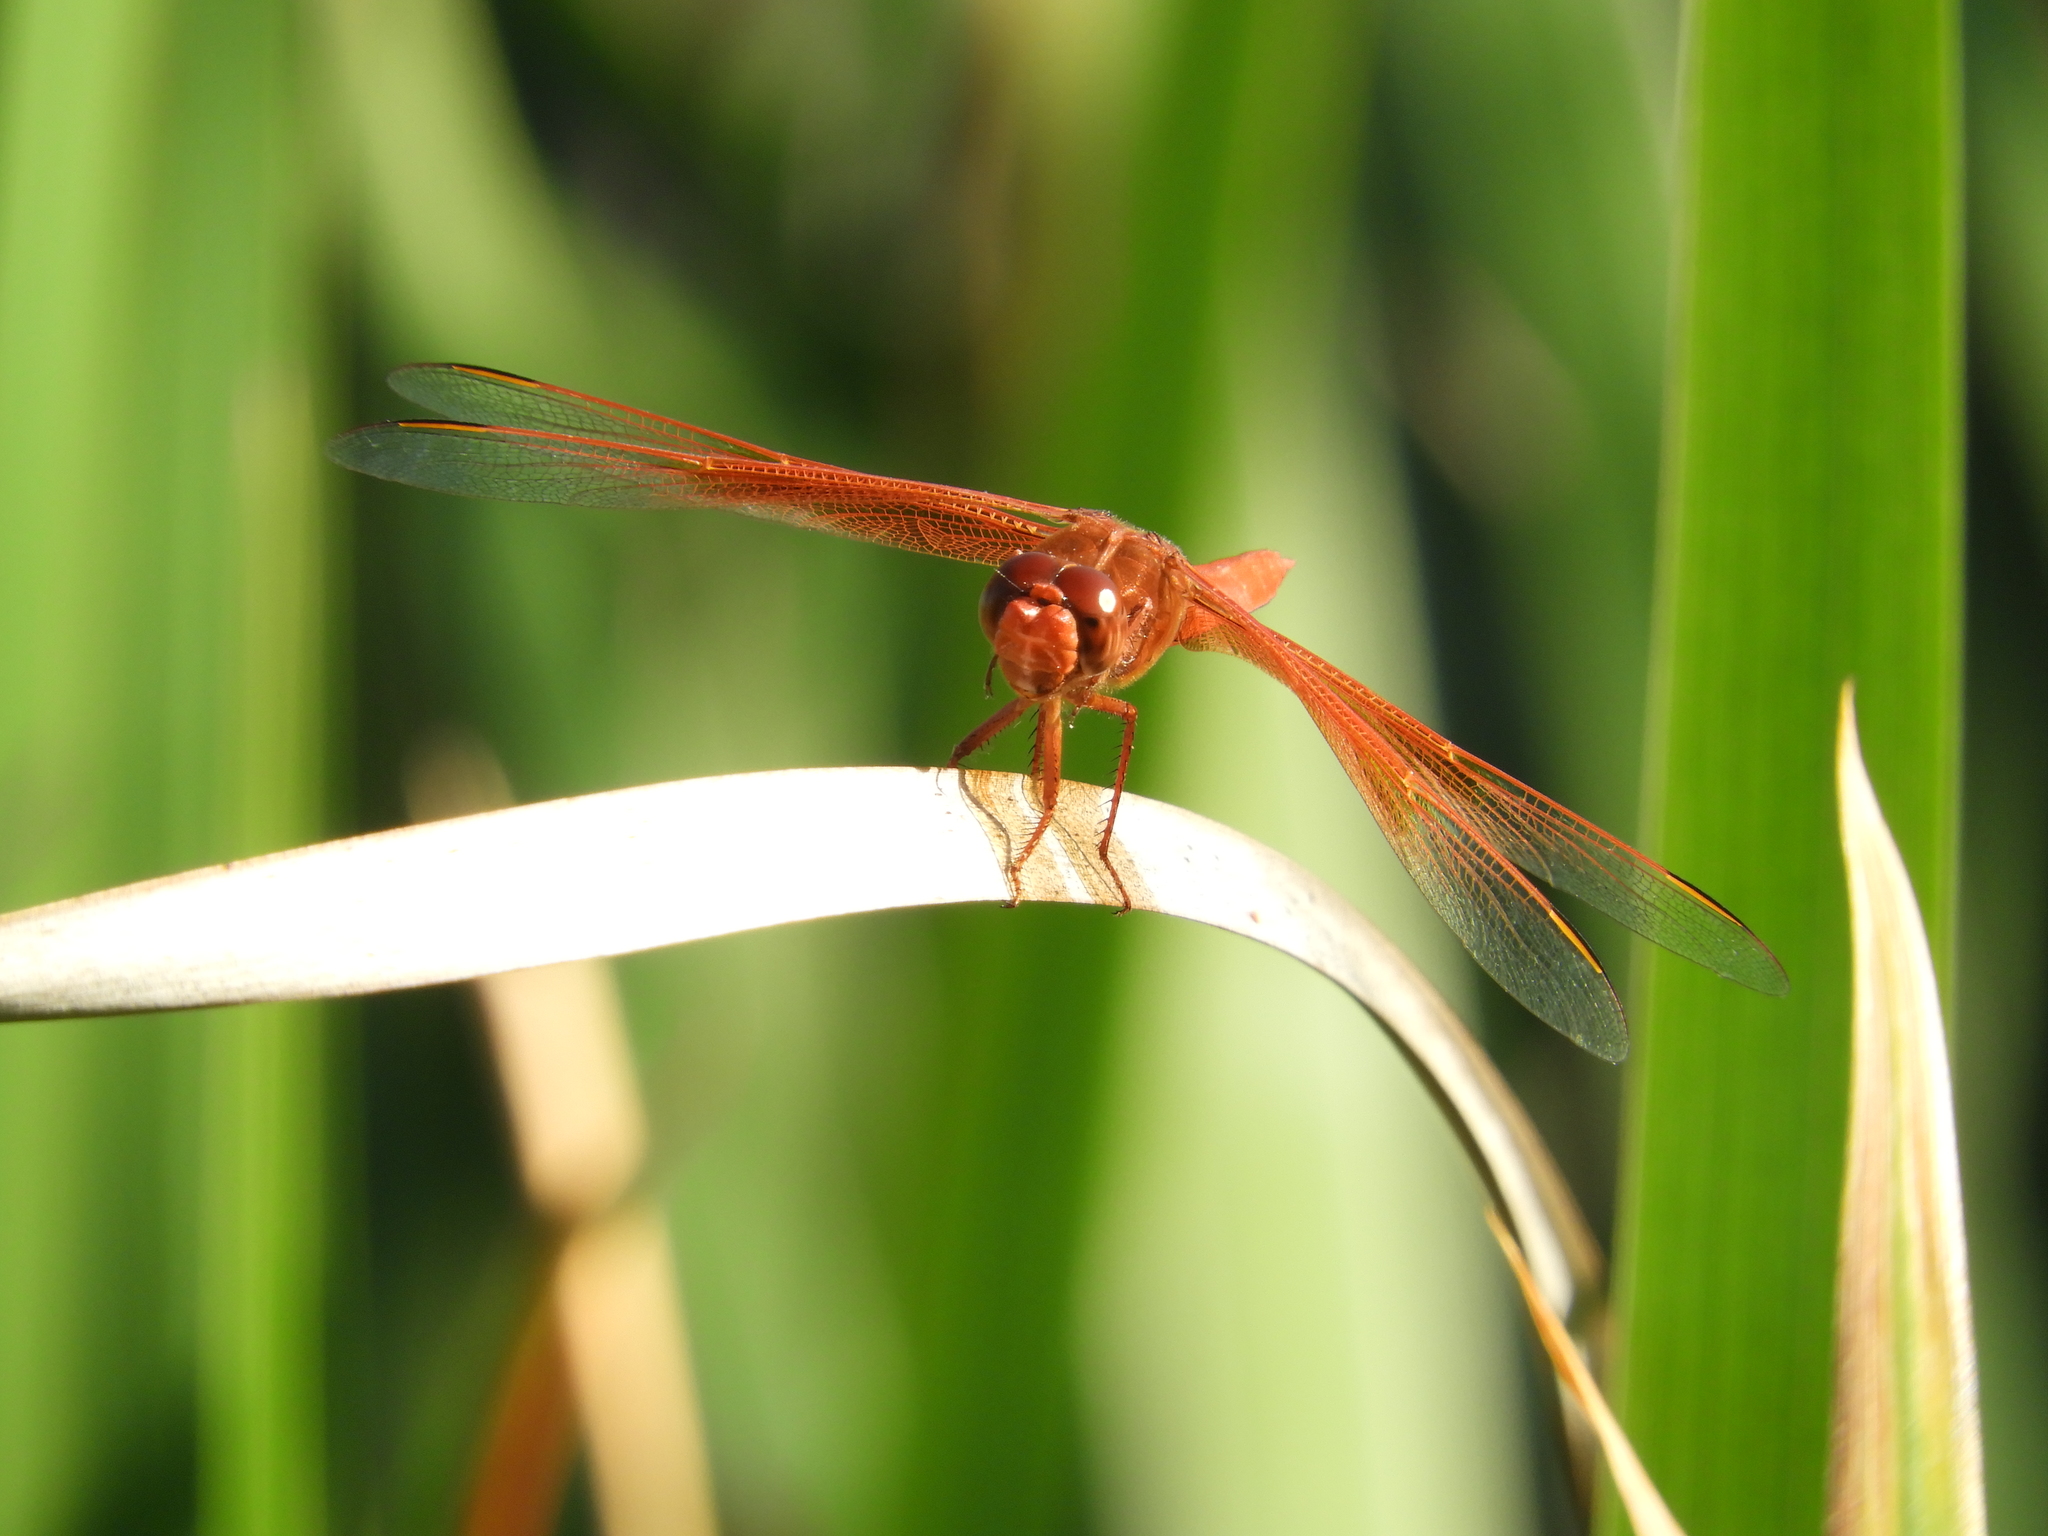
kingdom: Animalia
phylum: Arthropoda
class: Insecta
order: Odonata
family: Libellulidae
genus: Libellula
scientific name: Libellula saturata
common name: Flame skimmer
